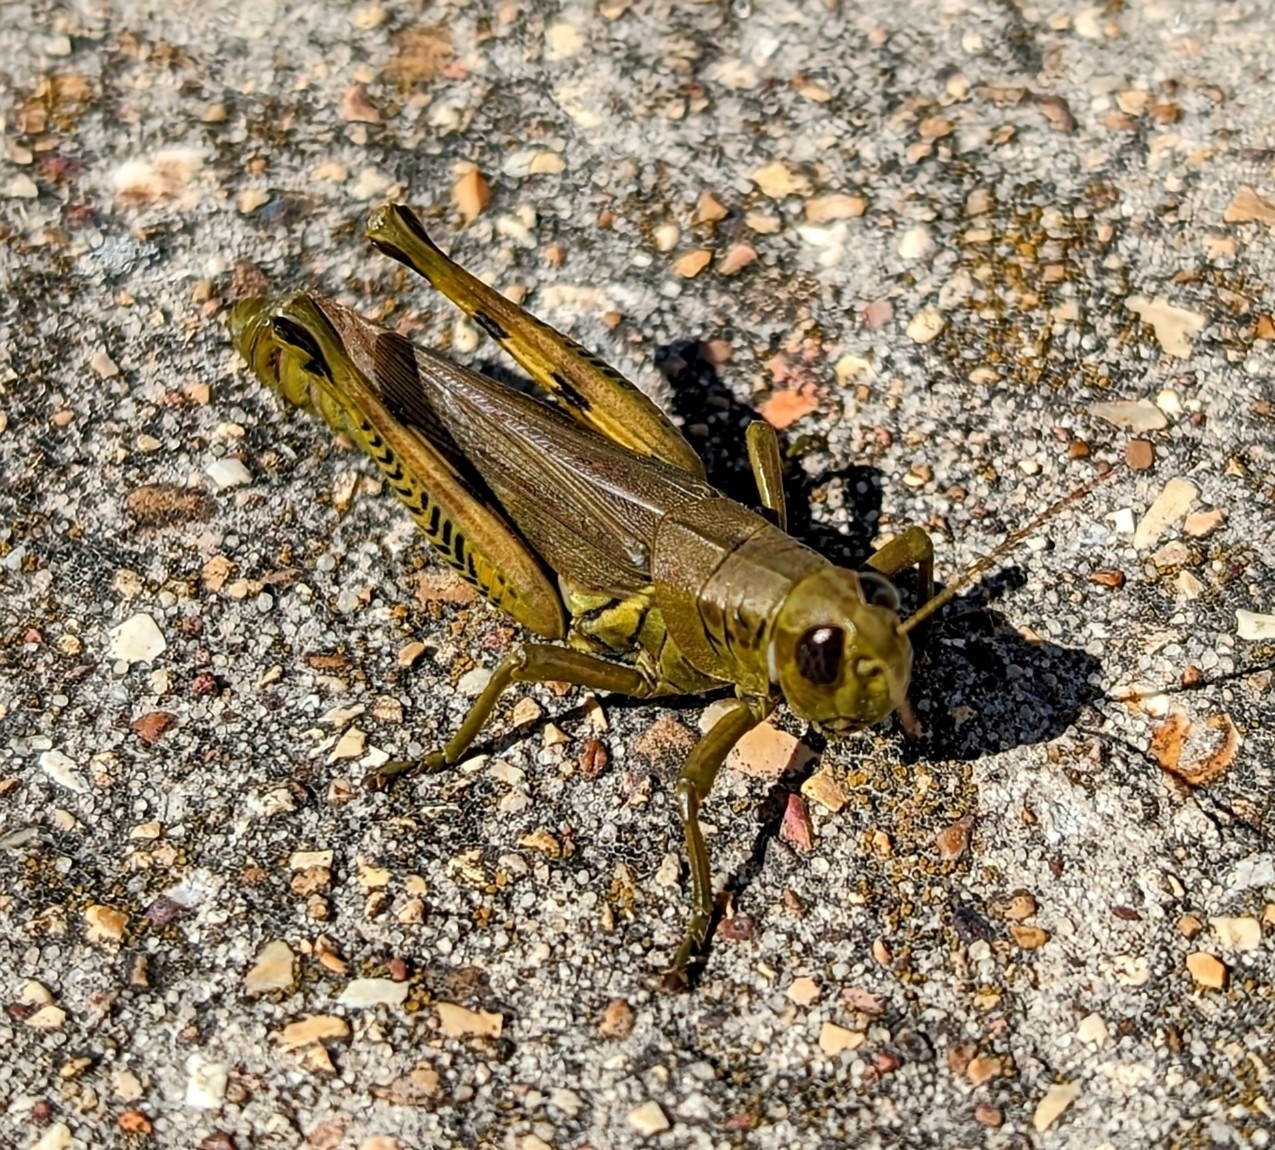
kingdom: Animalia
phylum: Arthropoda
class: Insecta
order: Orthoptera
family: Acrididae
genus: Melanoplus
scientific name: Melanoplus differentialis
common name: Differential grasshopper
